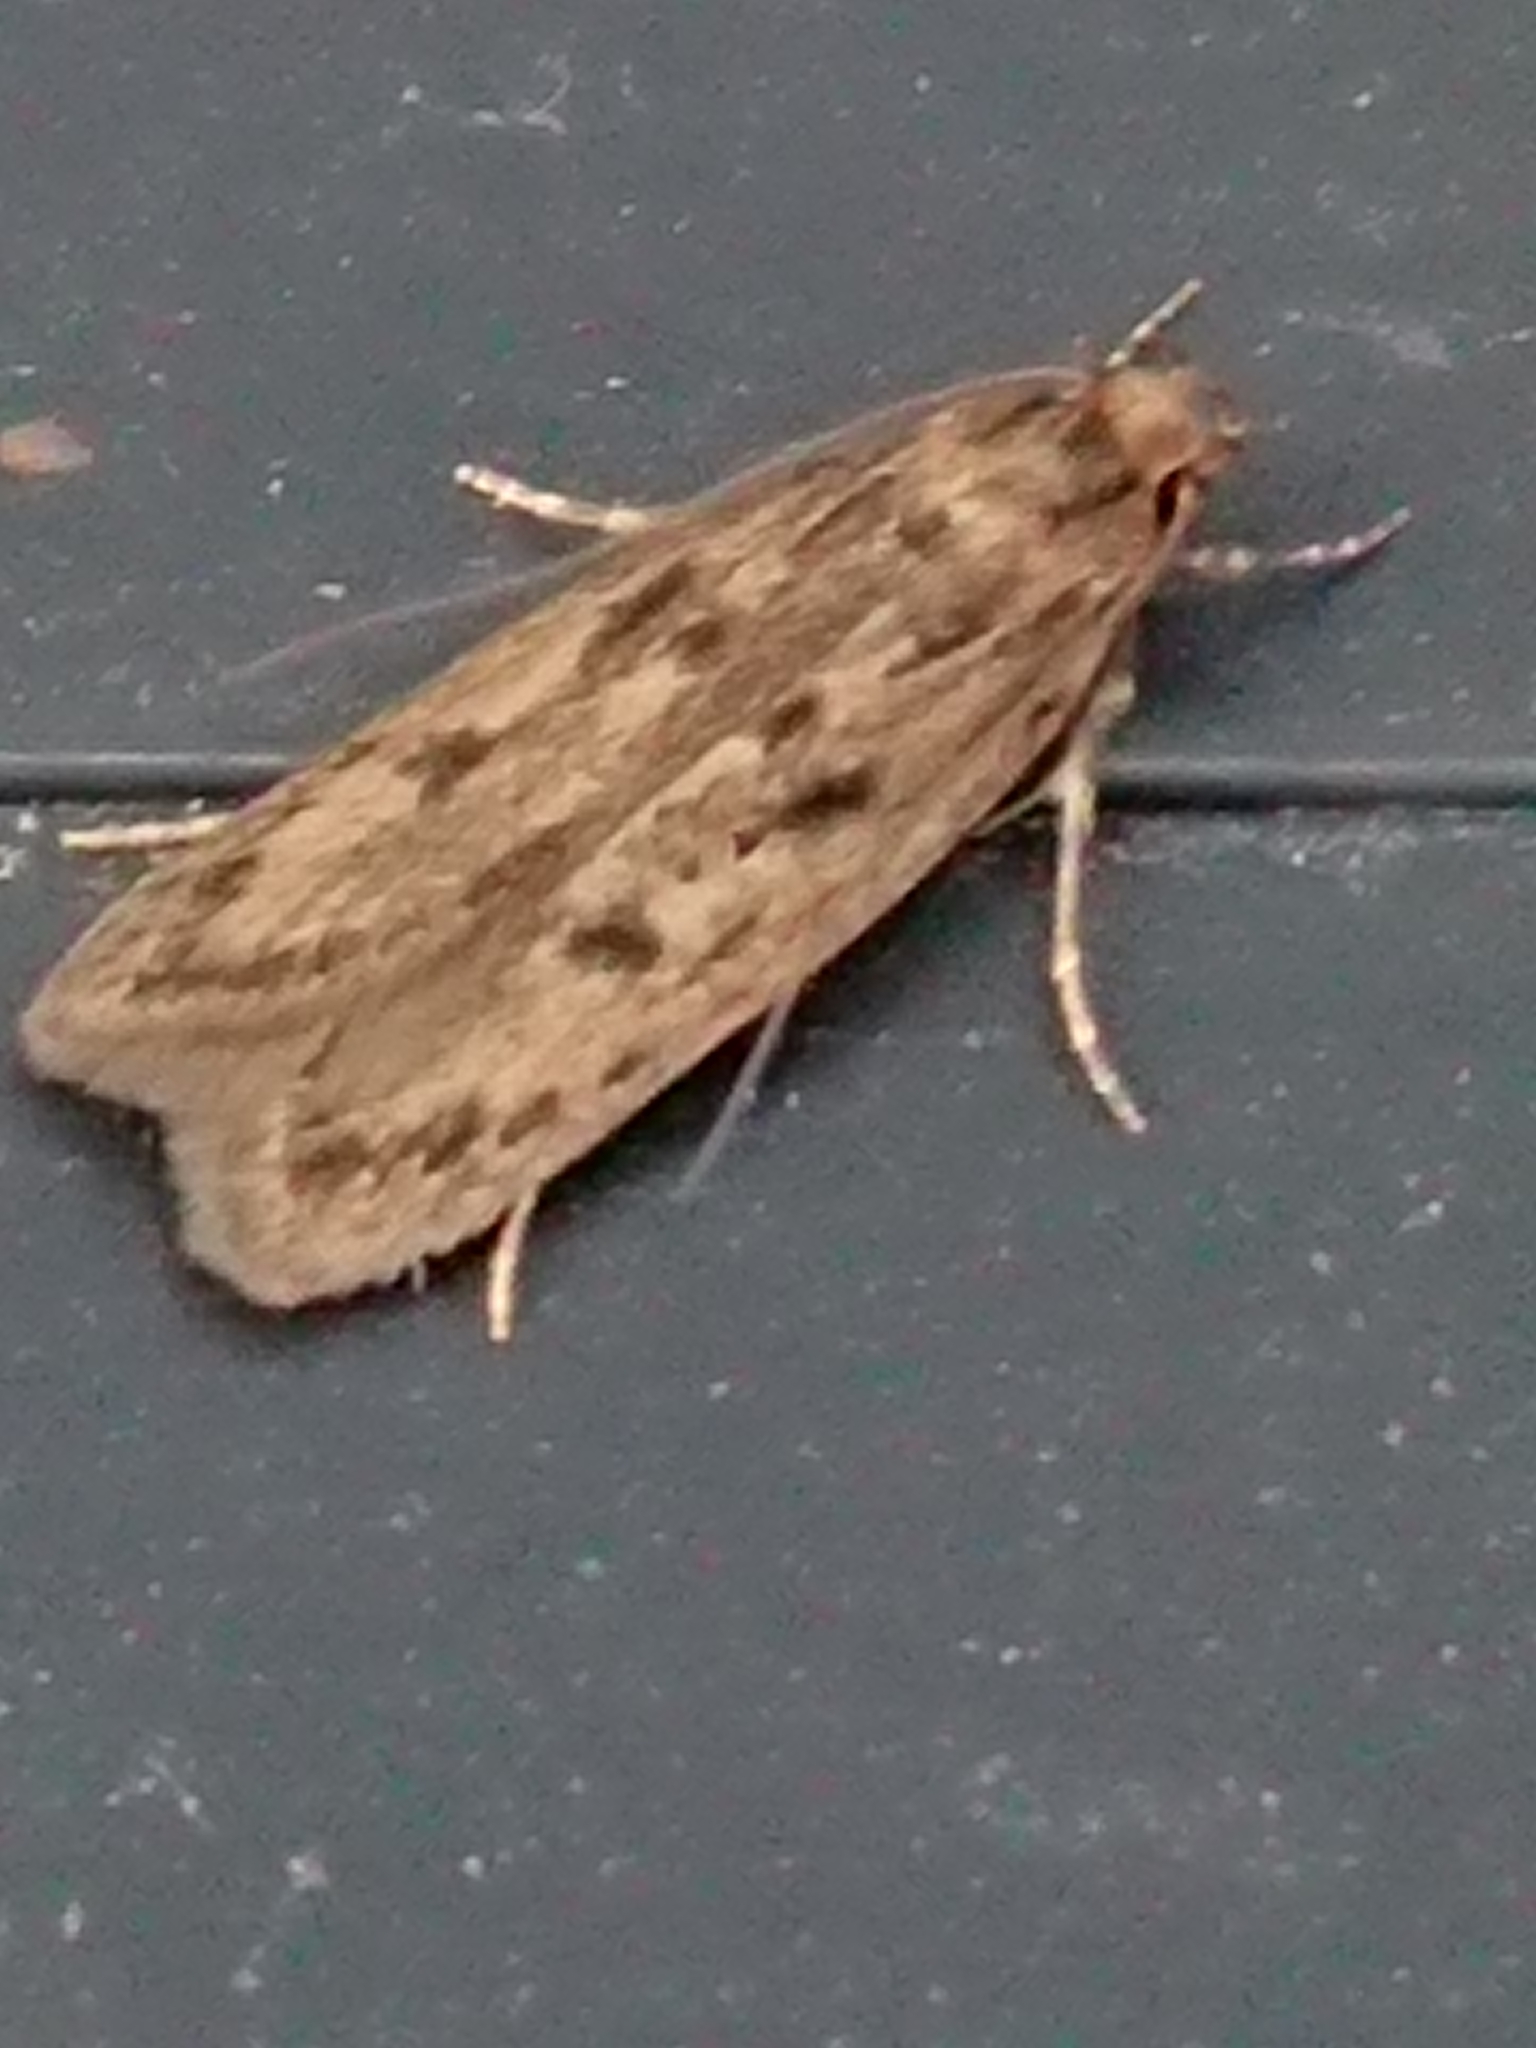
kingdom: Animalia
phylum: Arthropoda
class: Insecta
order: Lepidoptera
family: Oecophoridae
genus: Hofmannophila
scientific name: Hofmannophila pseudospretella
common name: Brown house moth
